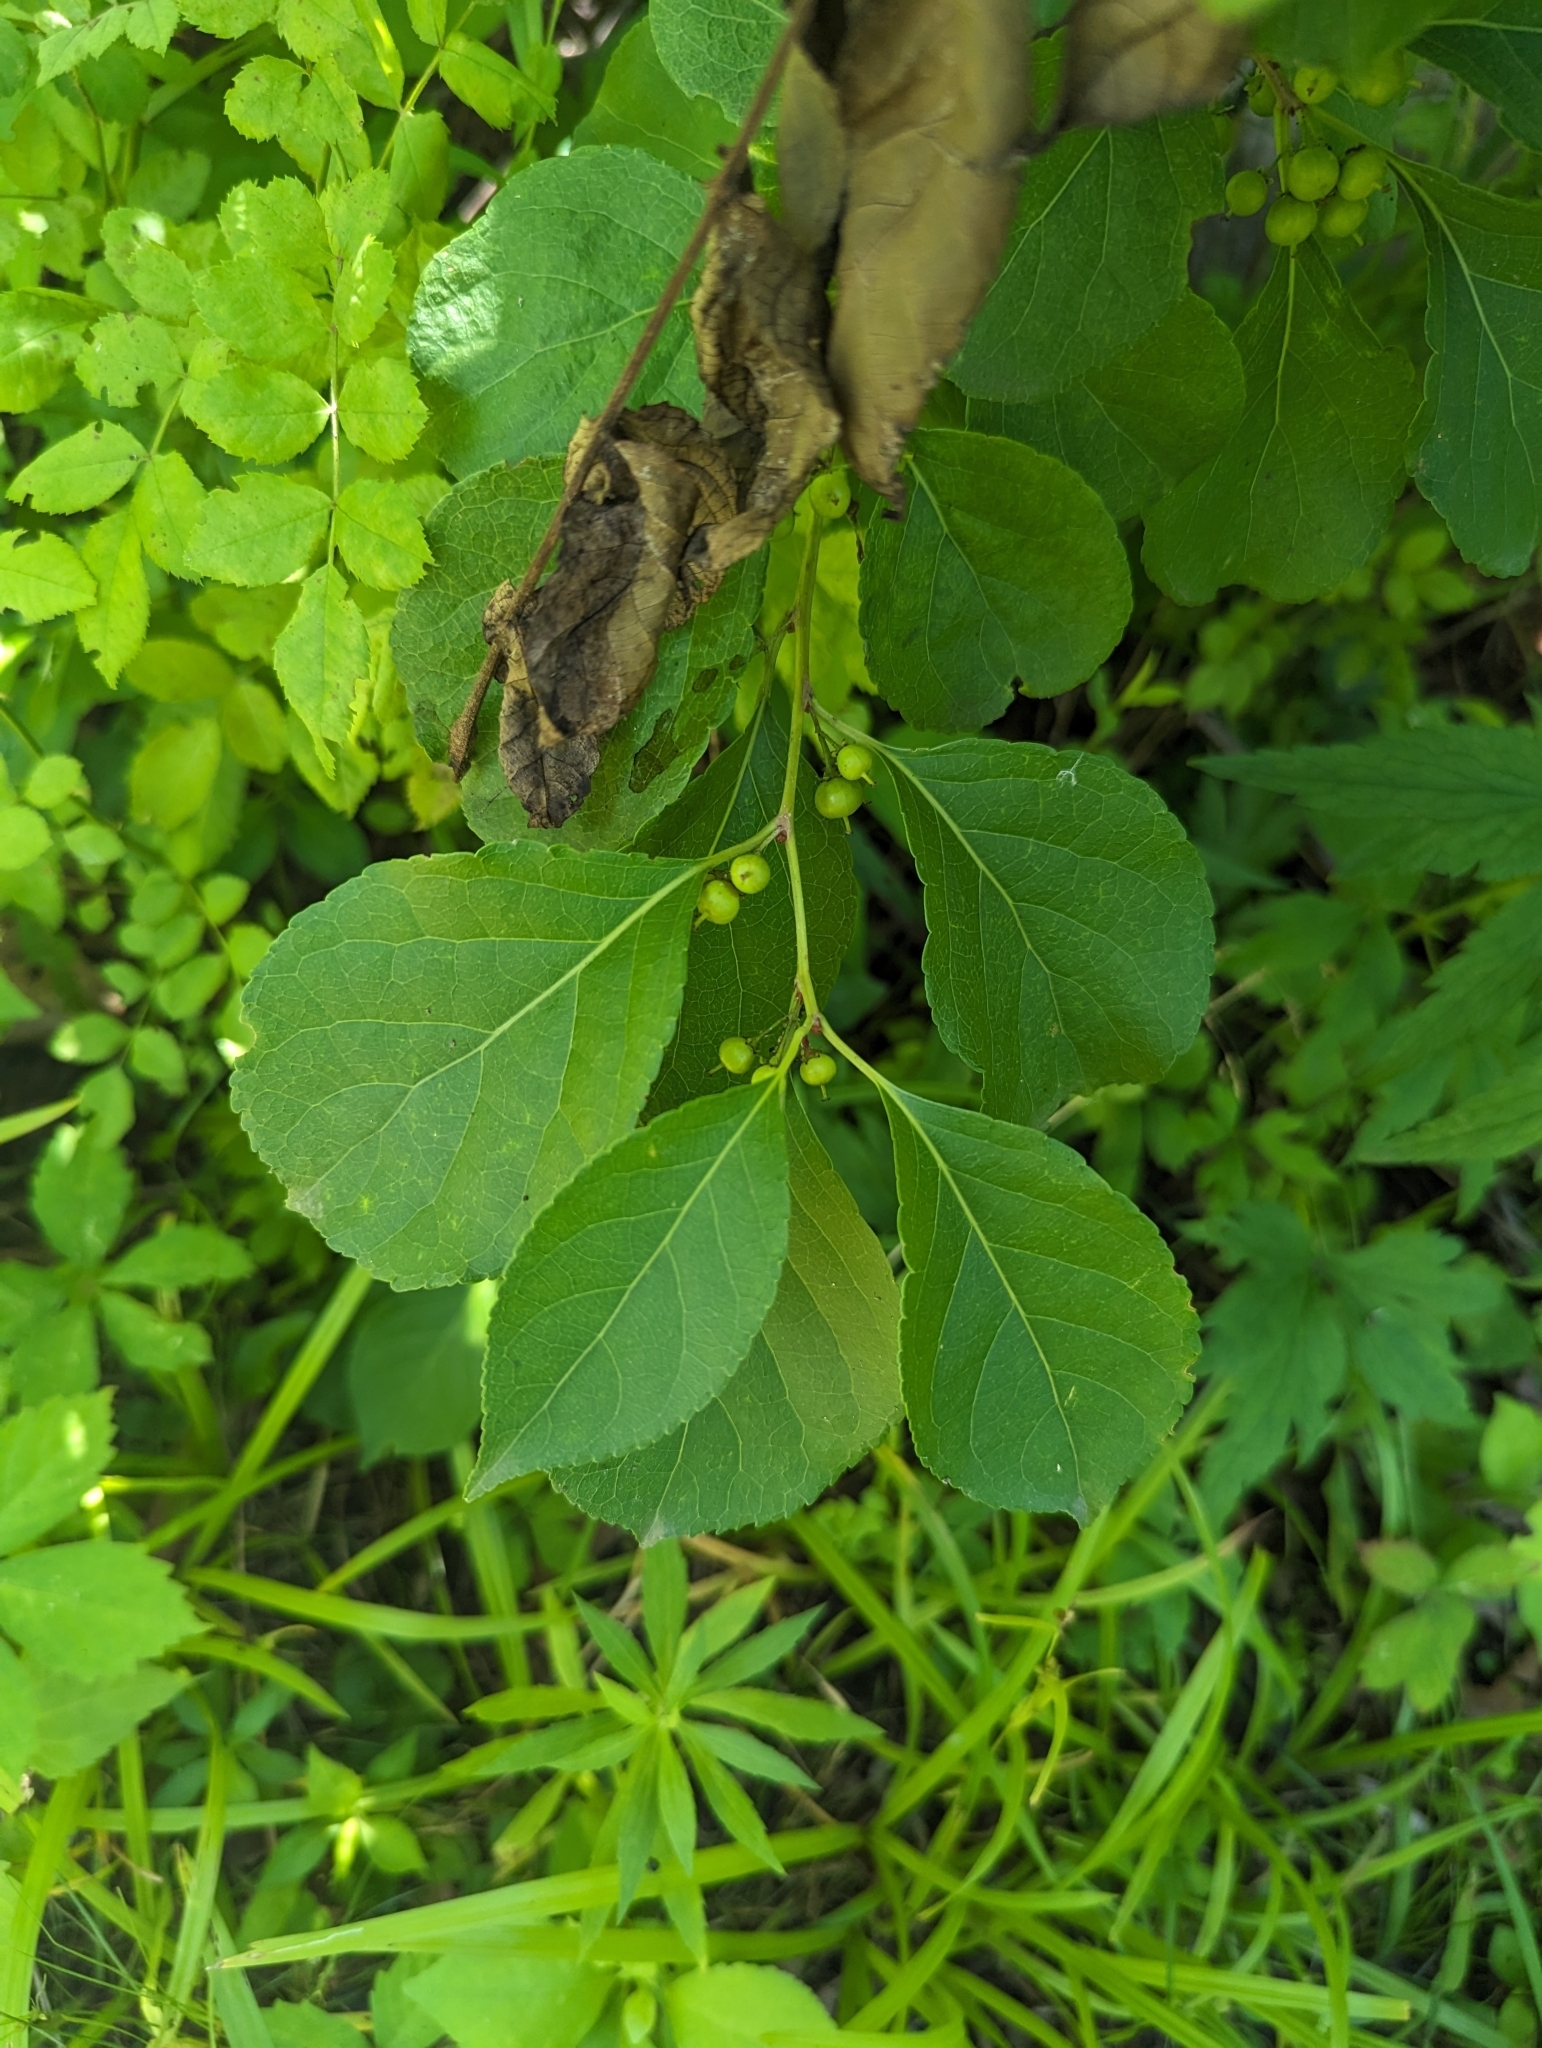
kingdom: Plantae
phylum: Tracheophyta
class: Magnoliopsida
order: Celastrales
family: Celastraceae
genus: Celastrus
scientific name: Celastrus orbiculatus
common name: Oriental bittersweet
